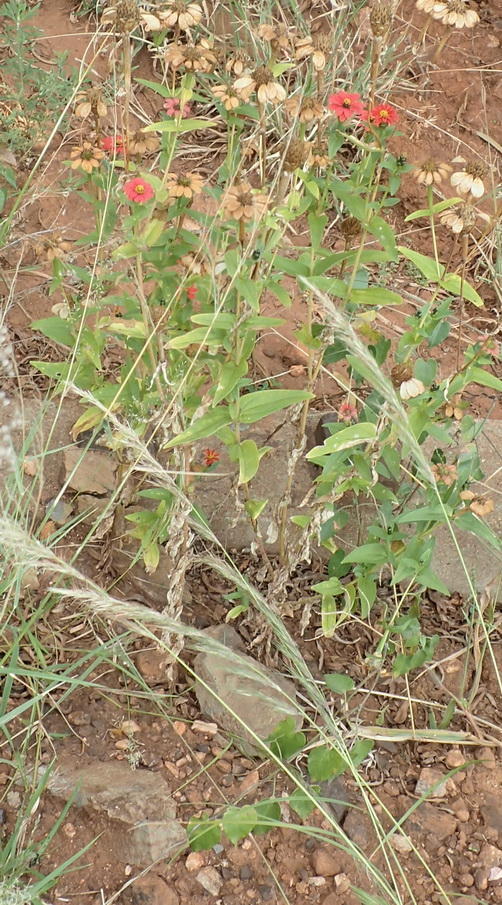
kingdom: Plantae
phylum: Tracheophyta
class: Magnoliopsida
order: Asterales
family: Asteraceae
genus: Zinnia
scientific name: Zinnia peruviana
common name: Peruvian zinnia
